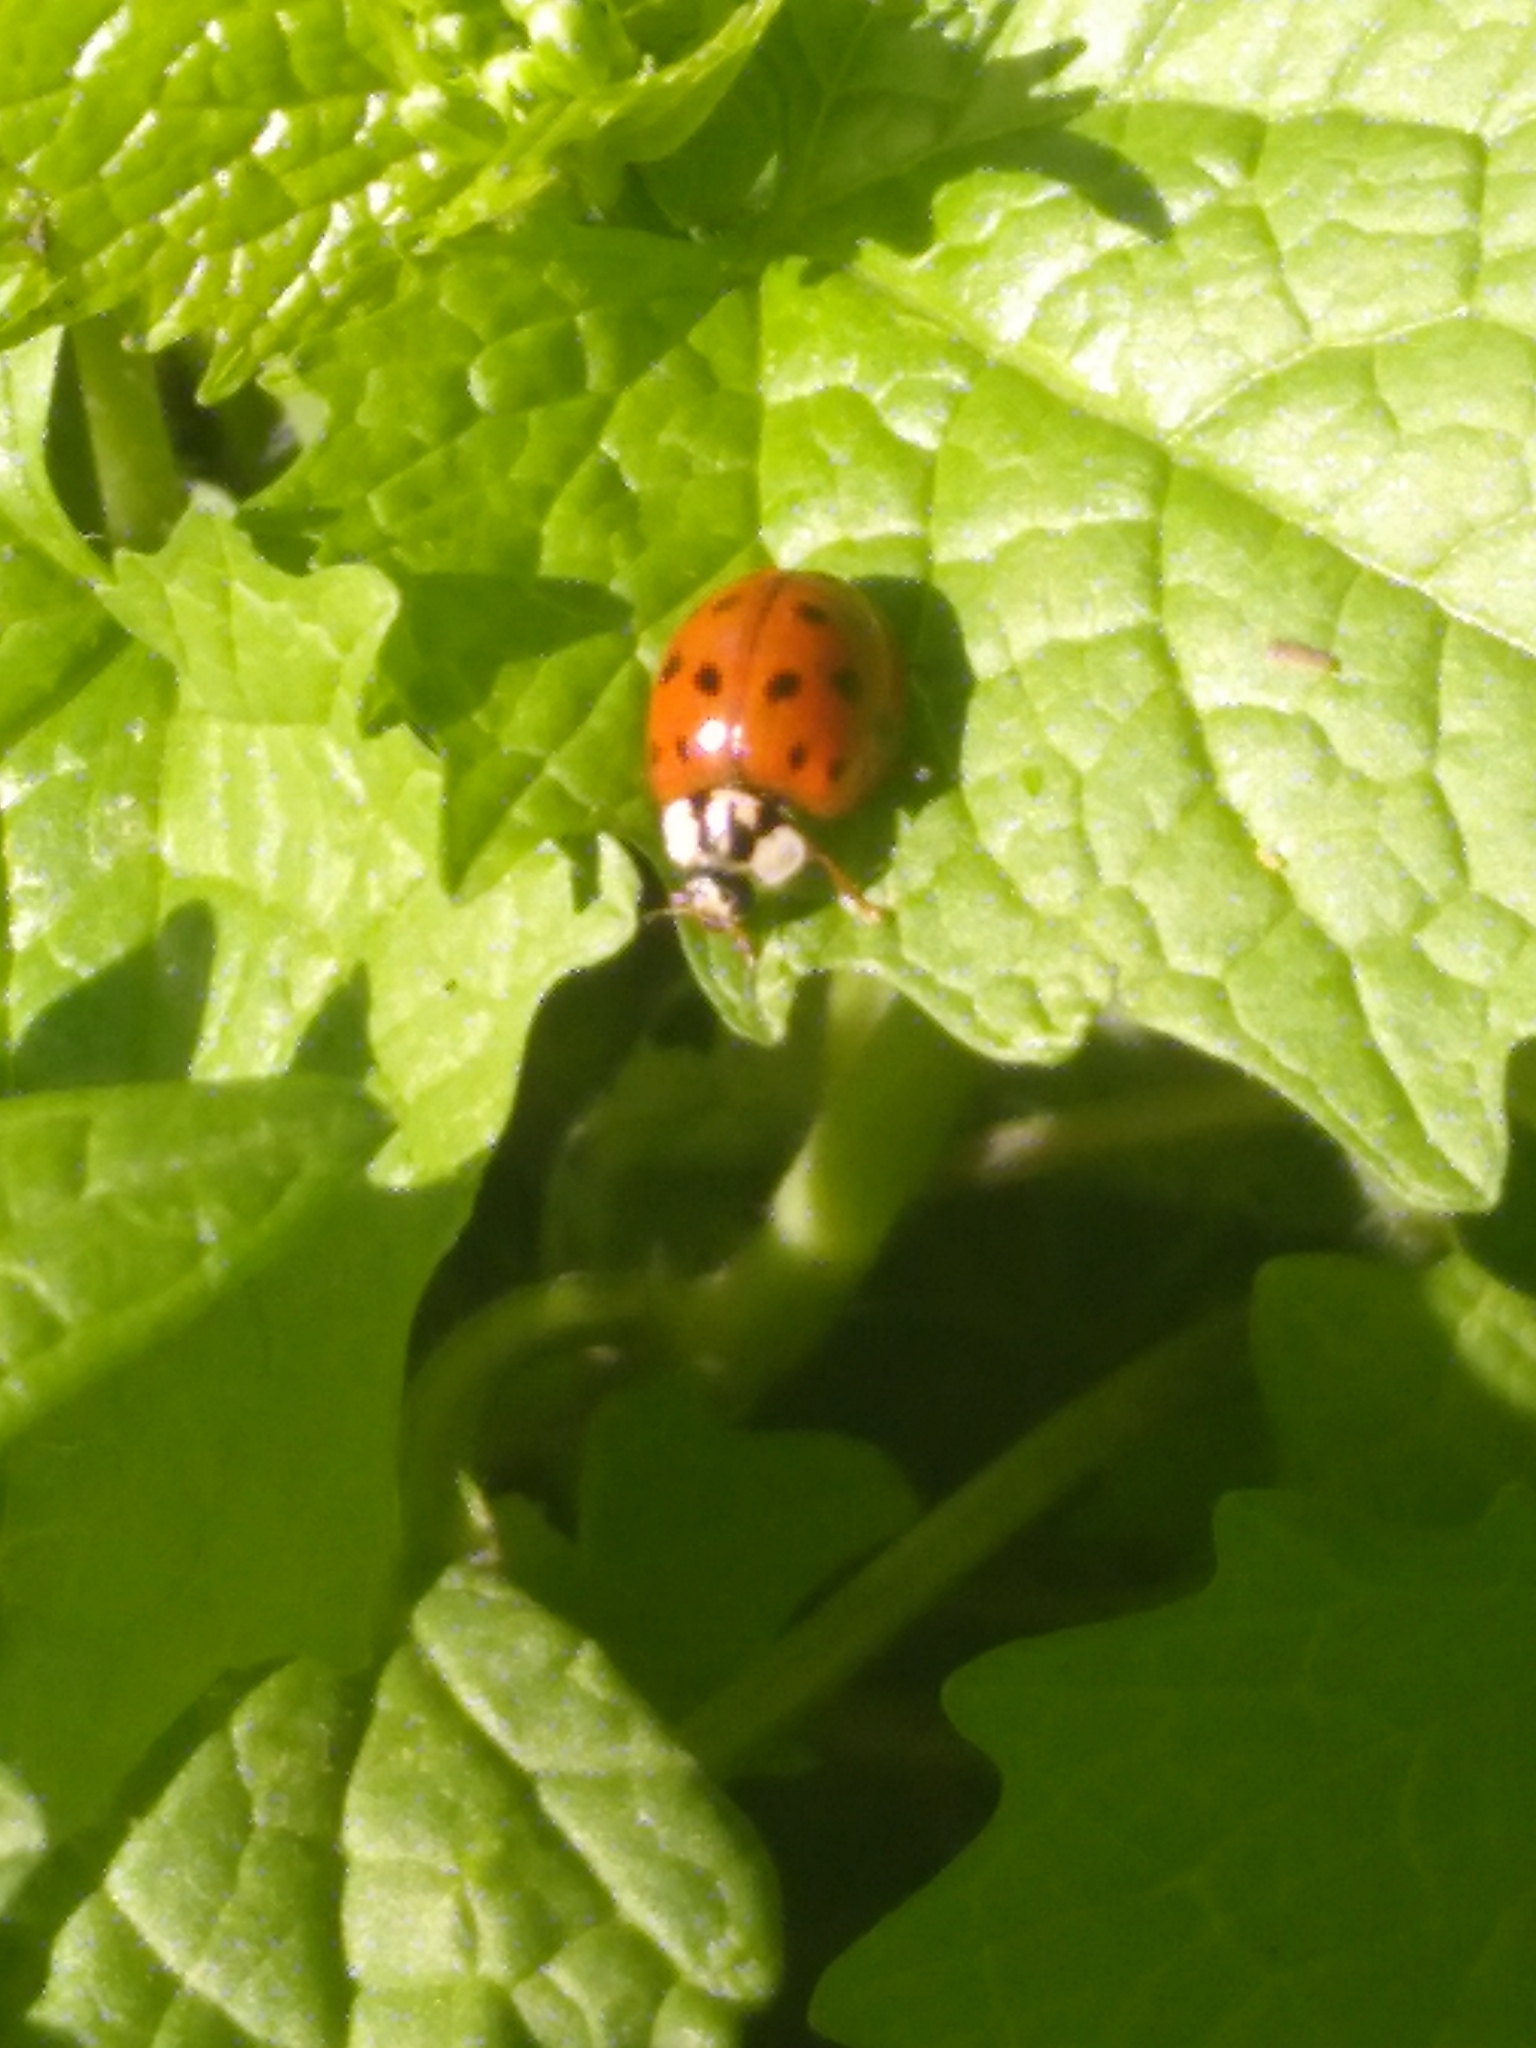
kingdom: Animalia
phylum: Arthropoda
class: Insecta
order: Coleoptera
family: Coccinellidae
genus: Harmonia
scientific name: Harmonia axyridis
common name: Harlequin ladybird
